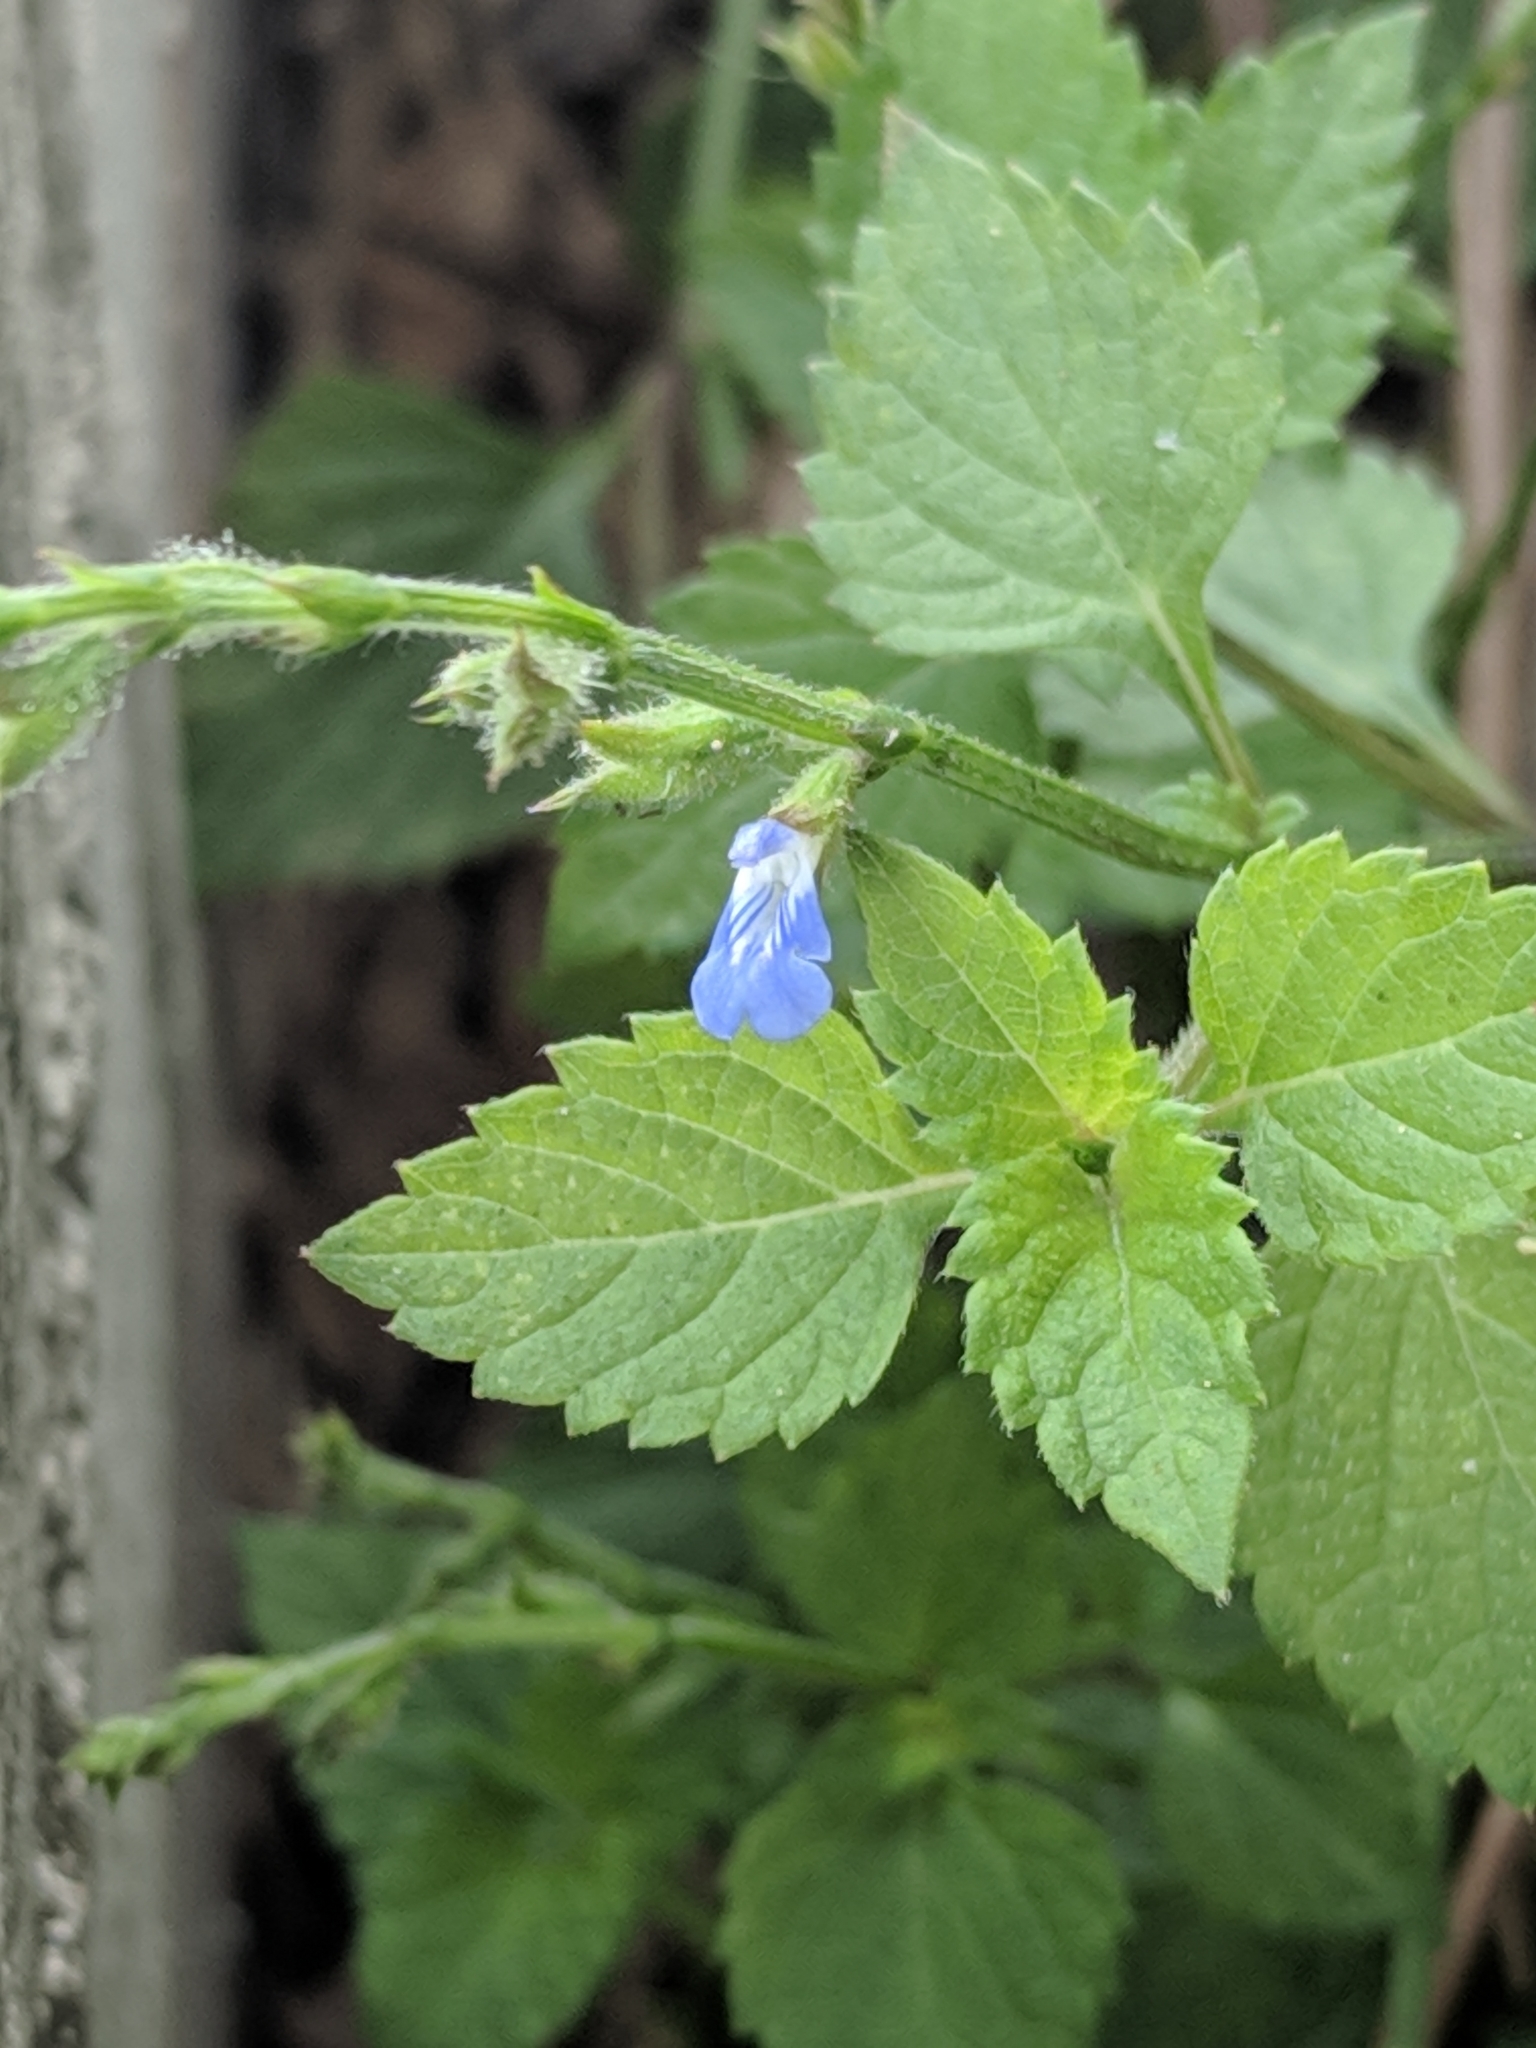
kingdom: Plantae
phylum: Tracheophyta
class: Magnoliopsida
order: Lamiales
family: Lamiaceae
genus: Salvia
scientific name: Salvia misella
